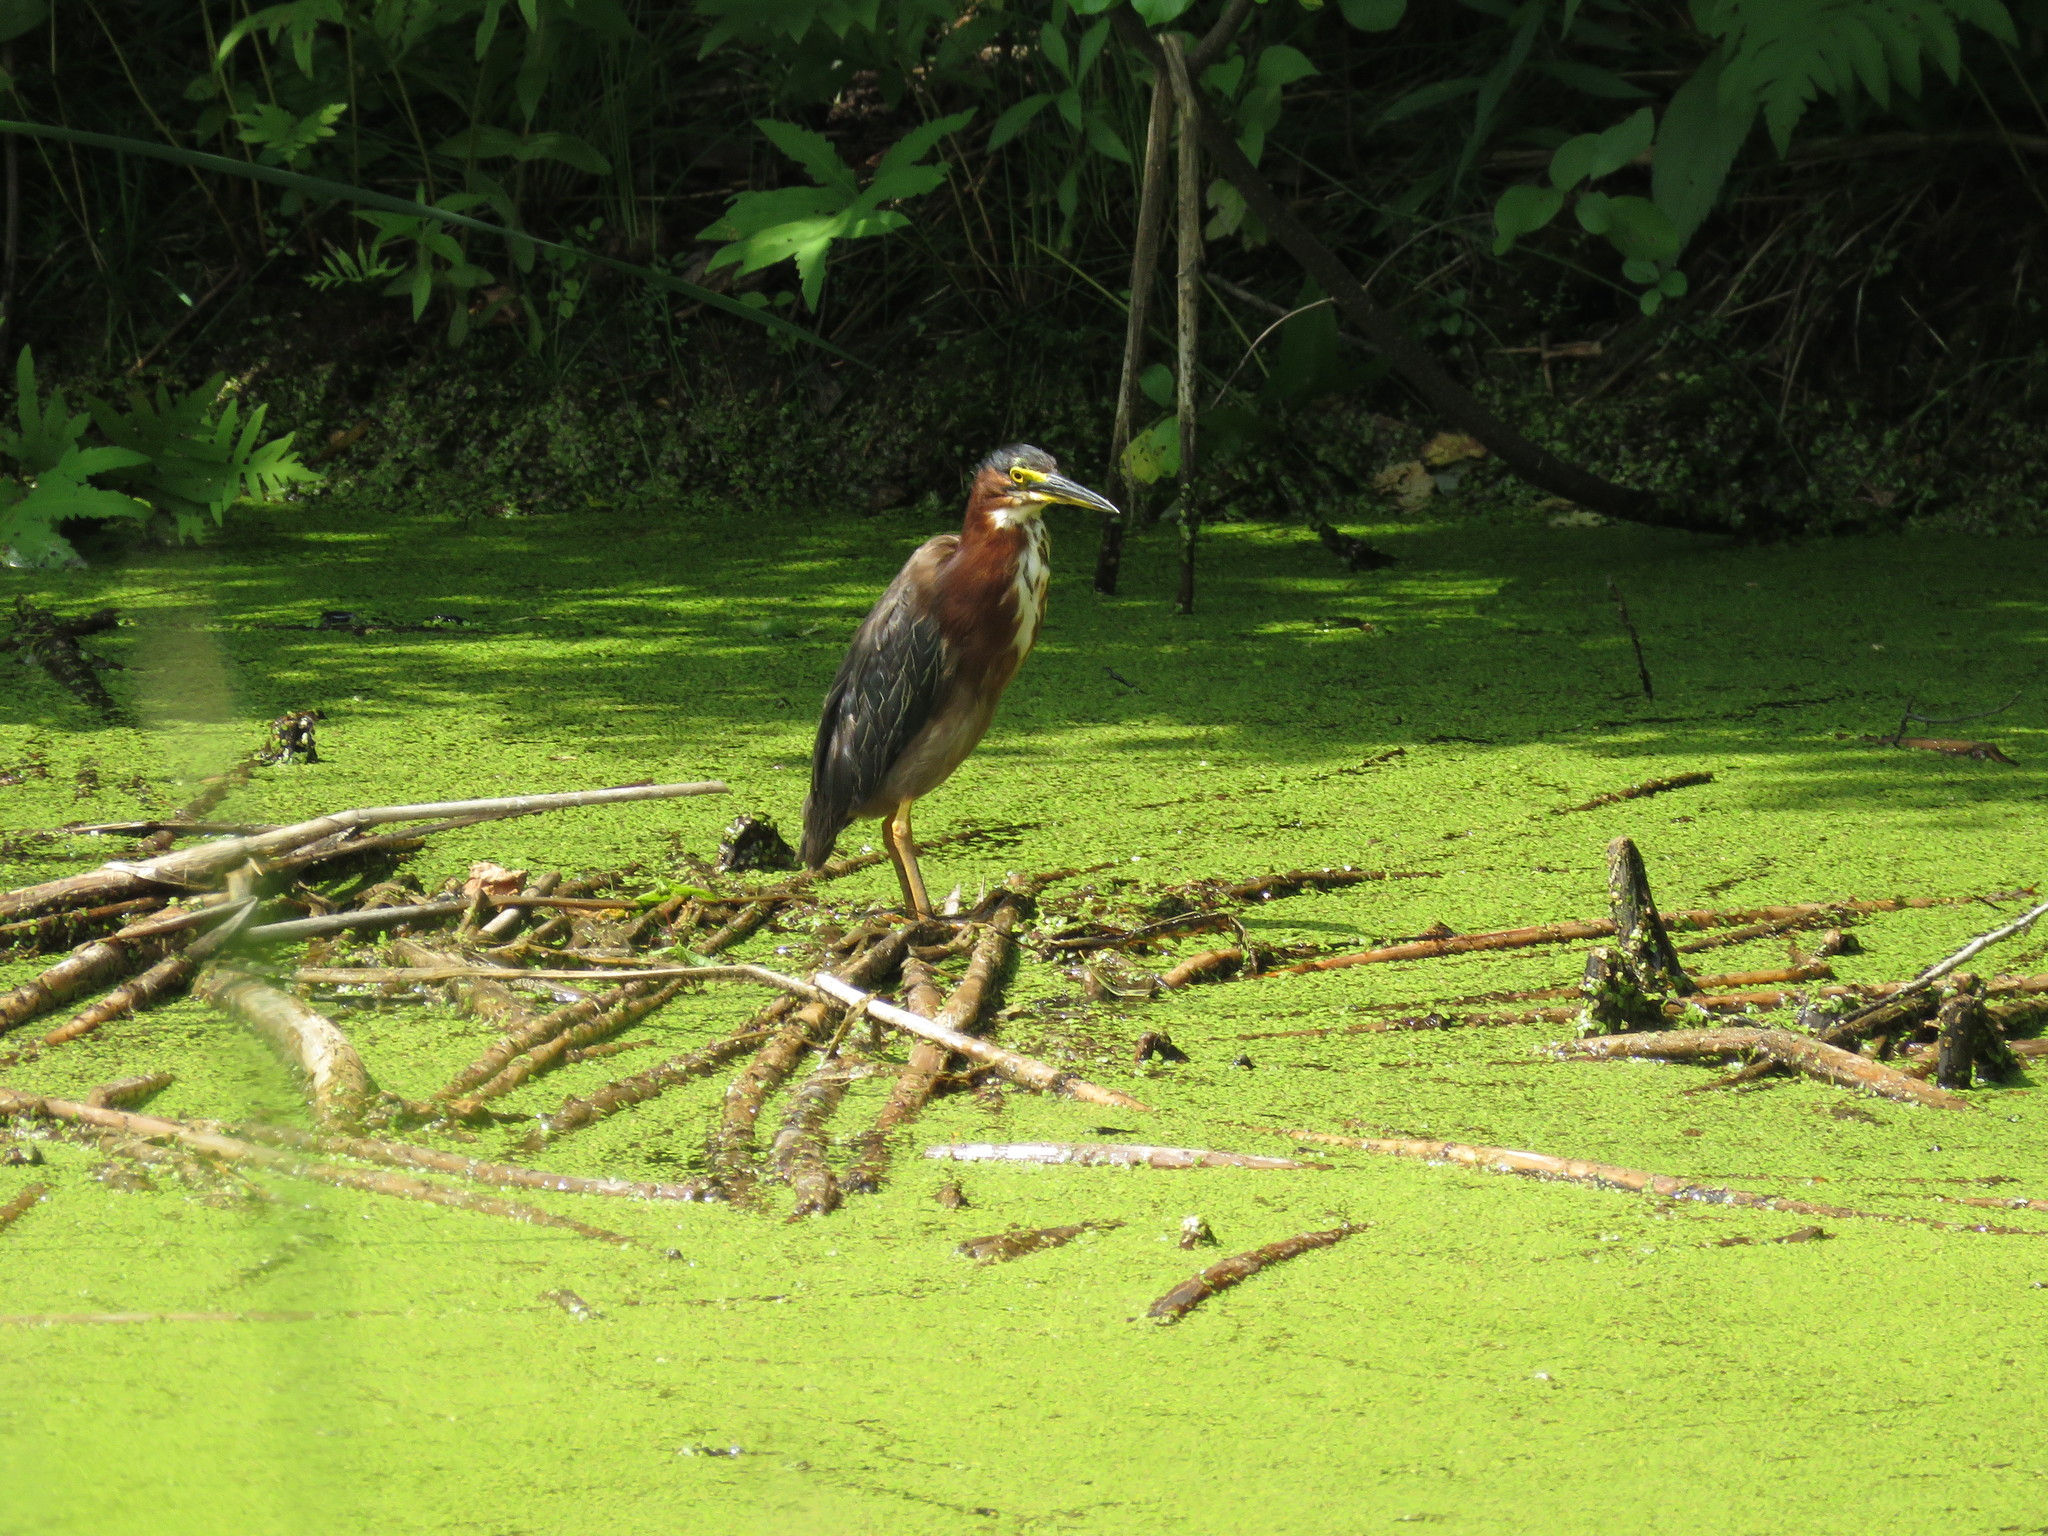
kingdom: Animalia
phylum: Chordata
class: Aves
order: Pelecaniformes
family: Ardeidae
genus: Butorides
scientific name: Butorides virescens
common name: Green heron
